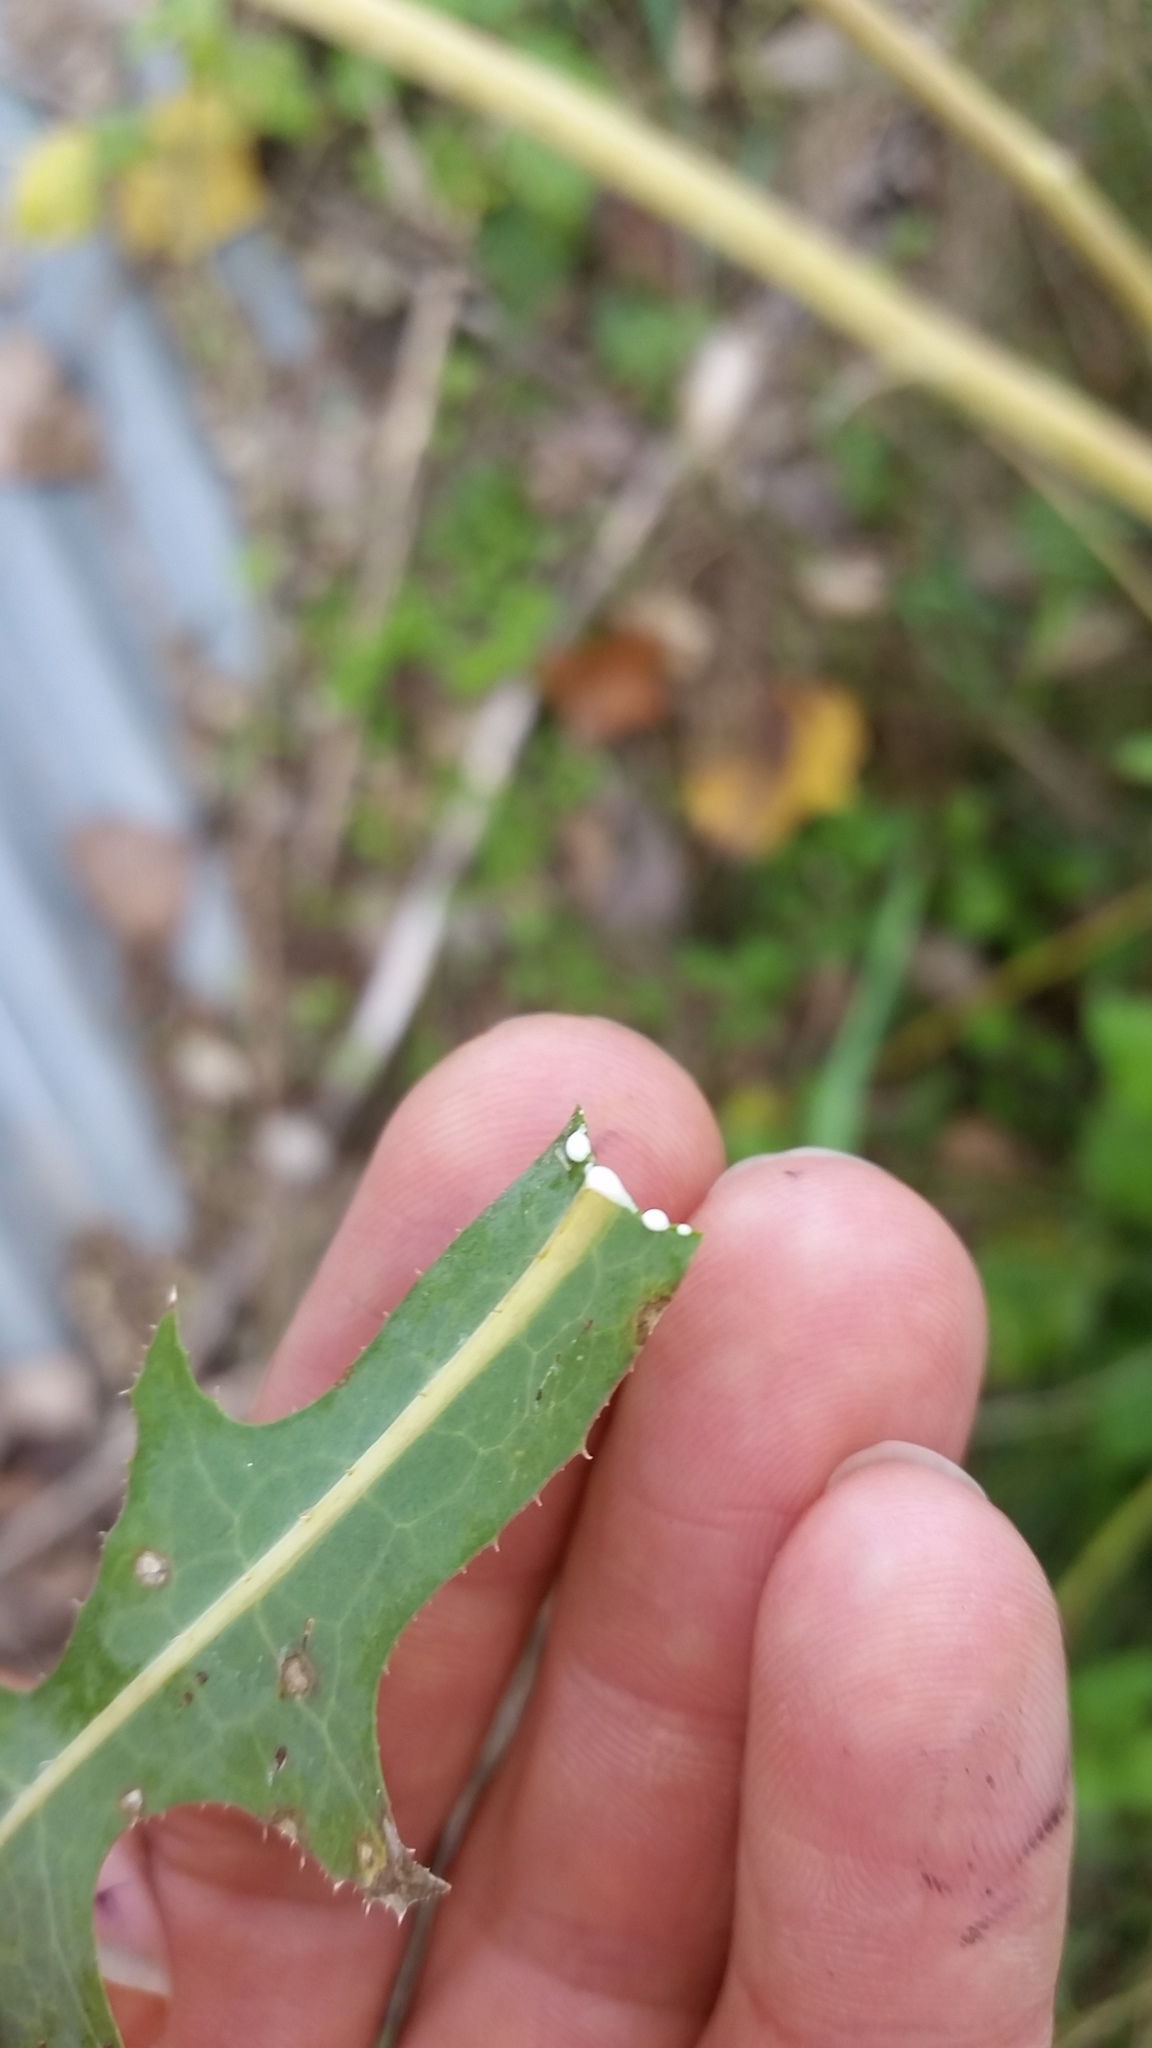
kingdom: Plantae
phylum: Tracheophyta
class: Magnoliopsida
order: Asterales
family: Asteraceae
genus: Lactuca
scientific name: Lactuca serriola
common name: Prickly lettuce
